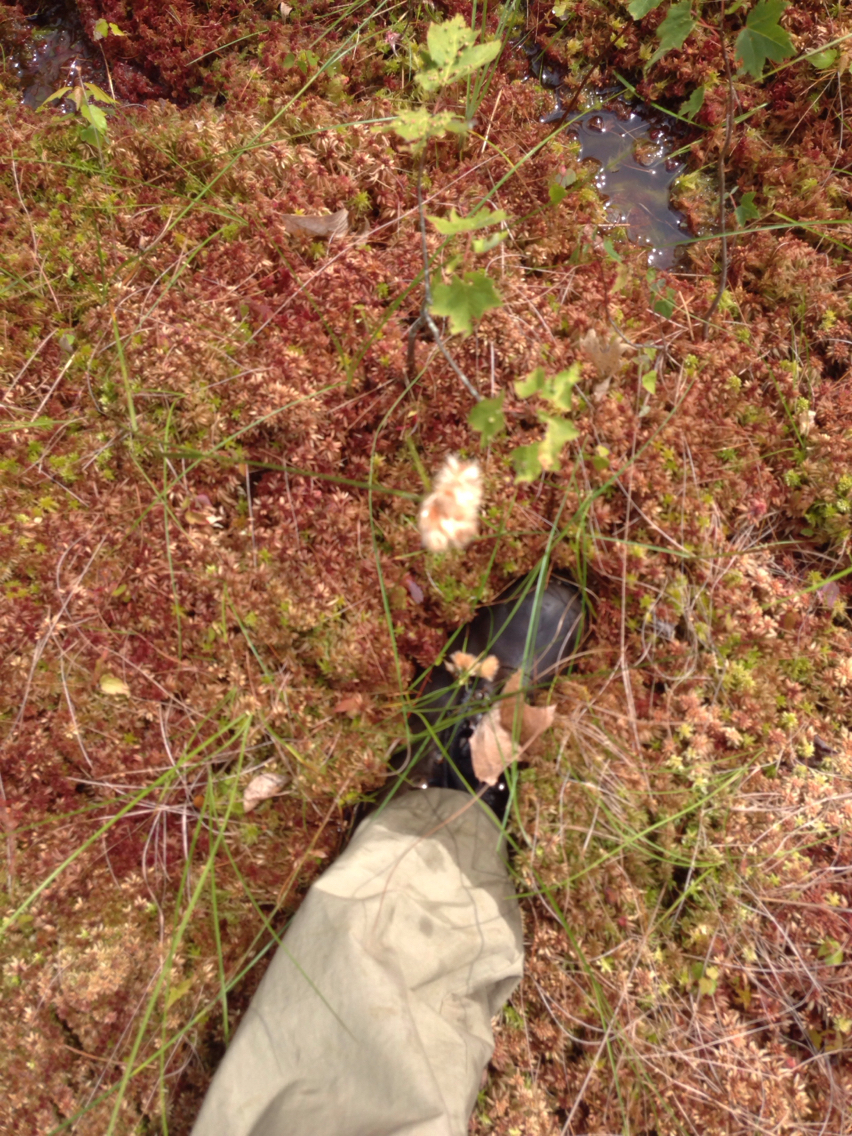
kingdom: Plantae
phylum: Tracheophyta
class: Liliopsida
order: Poales
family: Cyperaceae
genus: Eriophorum
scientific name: Eriophorum virginicum
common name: Tawny cottongrass
